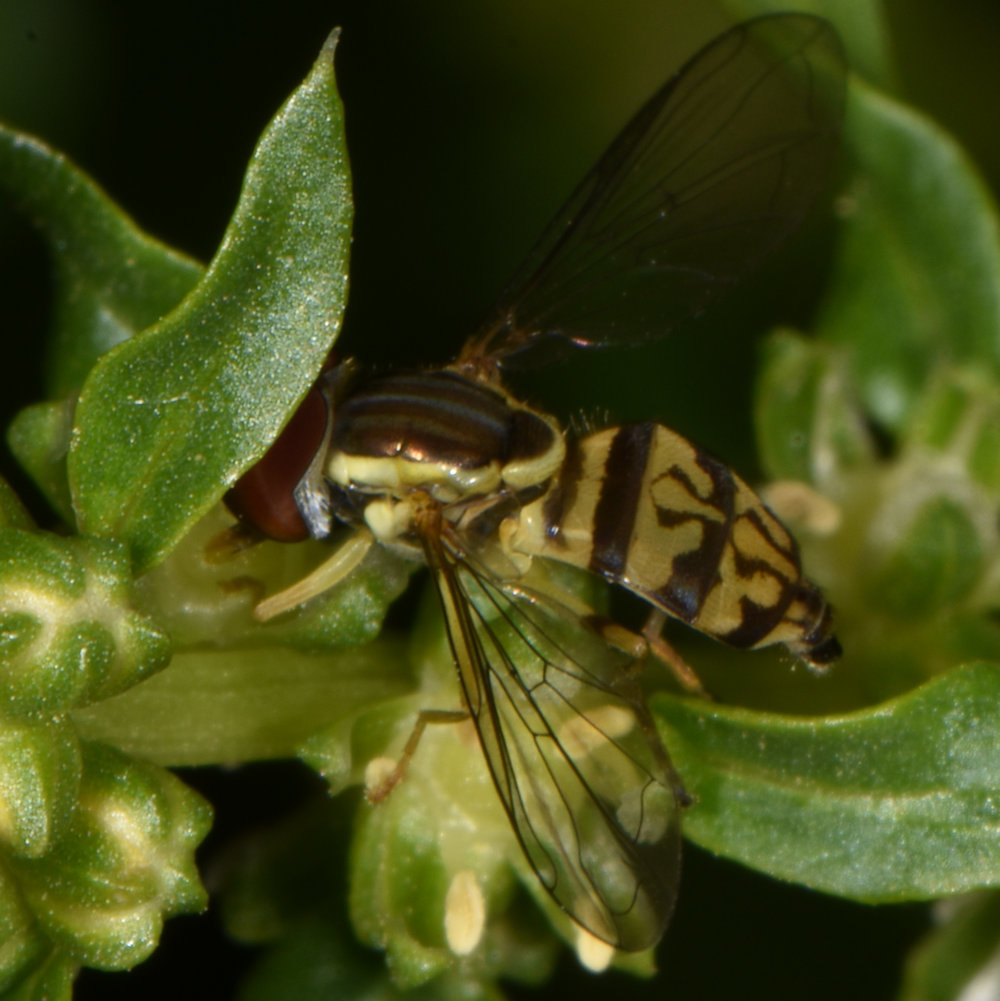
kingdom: Animalia
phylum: Arthropoda
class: Insecta
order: Diptera
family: Syrphidae
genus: Toxomerus
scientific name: Toxomerus geminatus
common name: Eastern calligrapher
